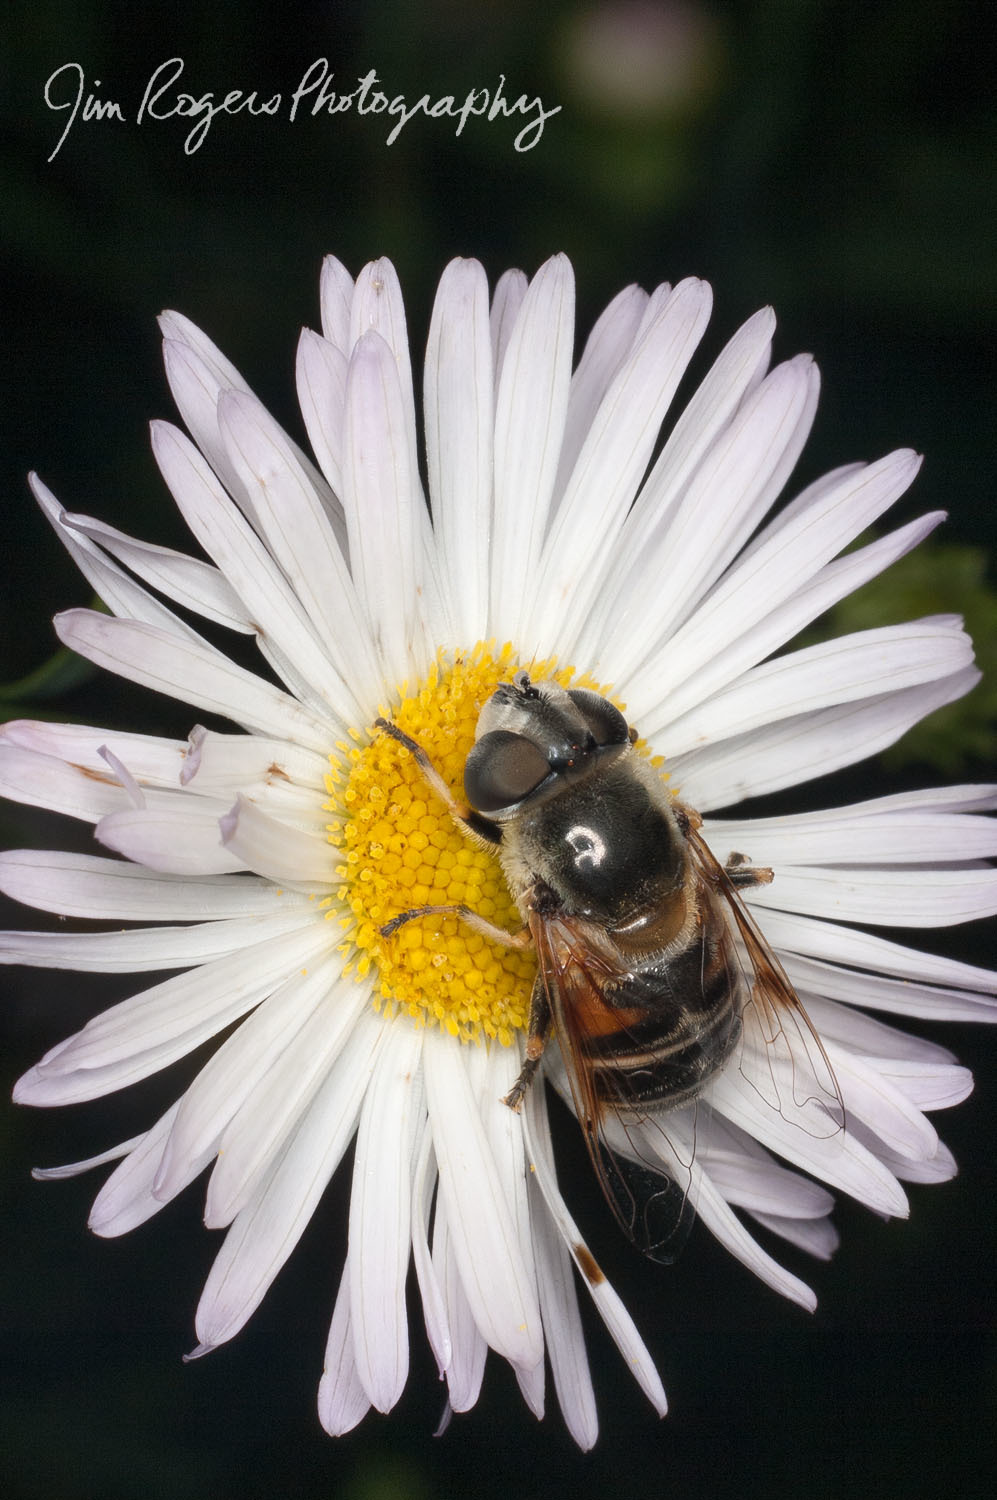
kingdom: Animalia
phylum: Arthropoda
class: Insecta
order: Diptera
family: Syrphidae
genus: Eristalis
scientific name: Eristalis stipator
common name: Yellow-shouldered drone fly
